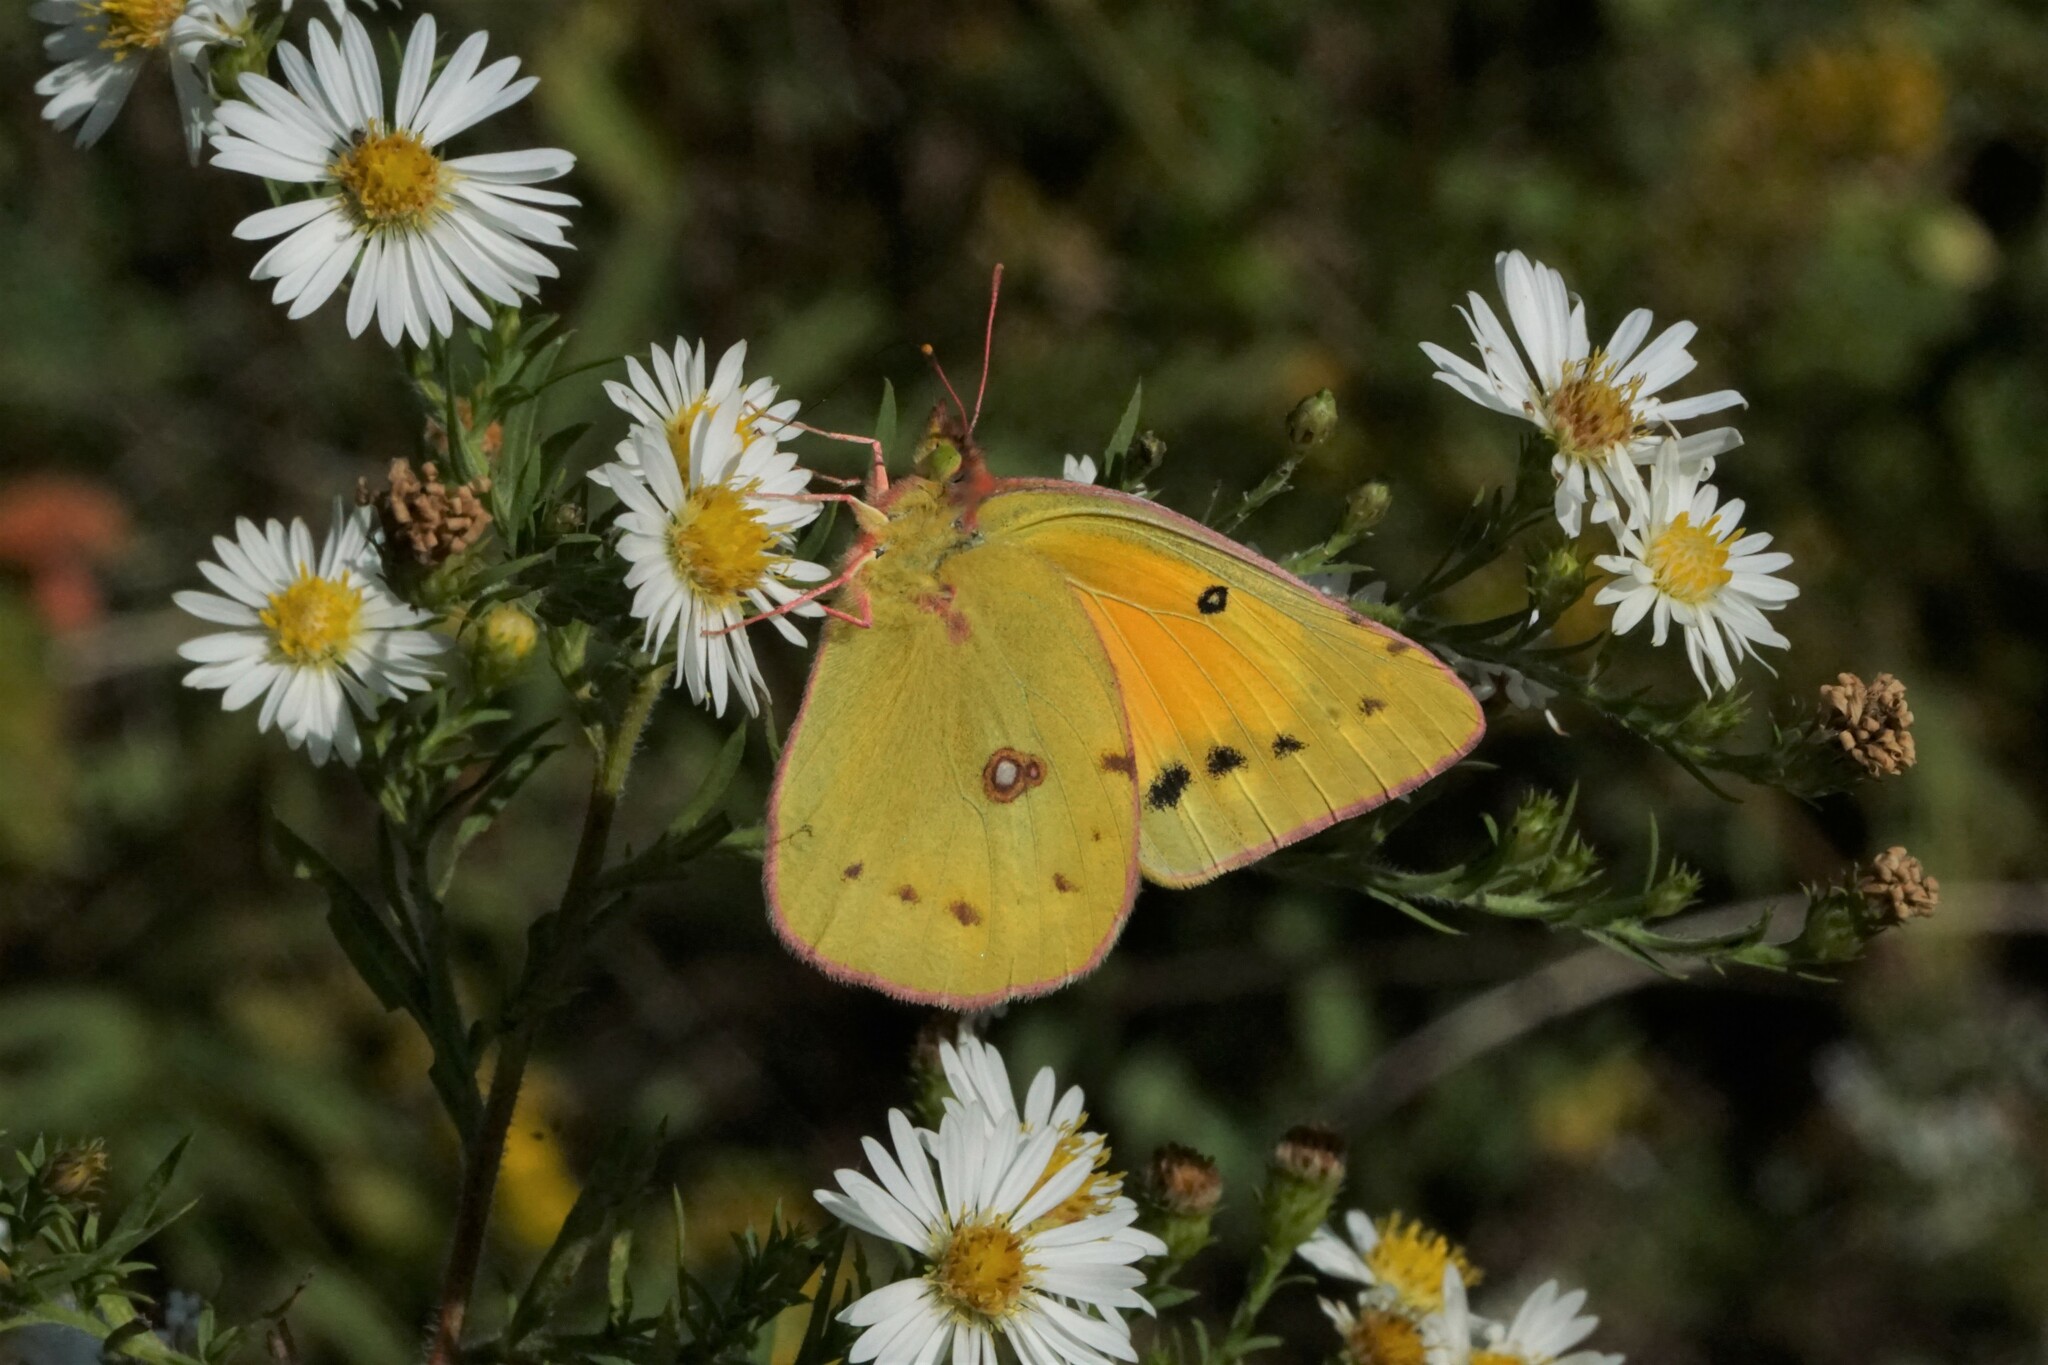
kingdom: Animalia
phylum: Arthropoda
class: Insecta
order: Lepidoptera
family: Pieridae
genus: Colias
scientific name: Colias eurytheme
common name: Alfalfa butterfly
